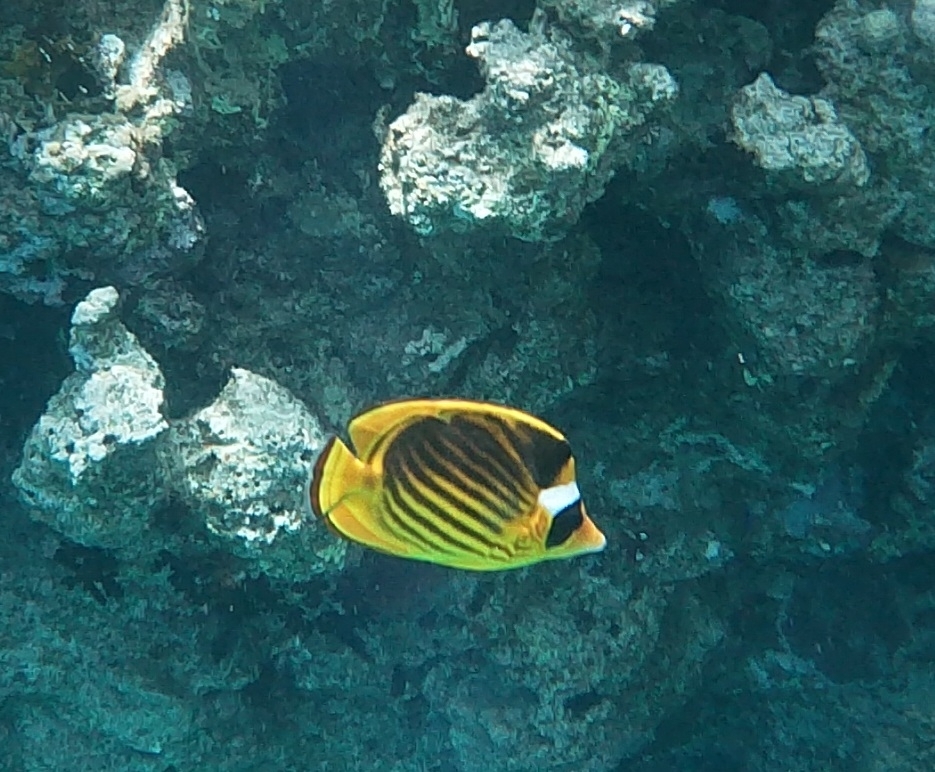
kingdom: Animalia
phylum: Chordata
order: Perciformes
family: Chaetodontidae
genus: Chaetodon
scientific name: Chaetodon fasciatus
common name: Diagonal butterflyfish
